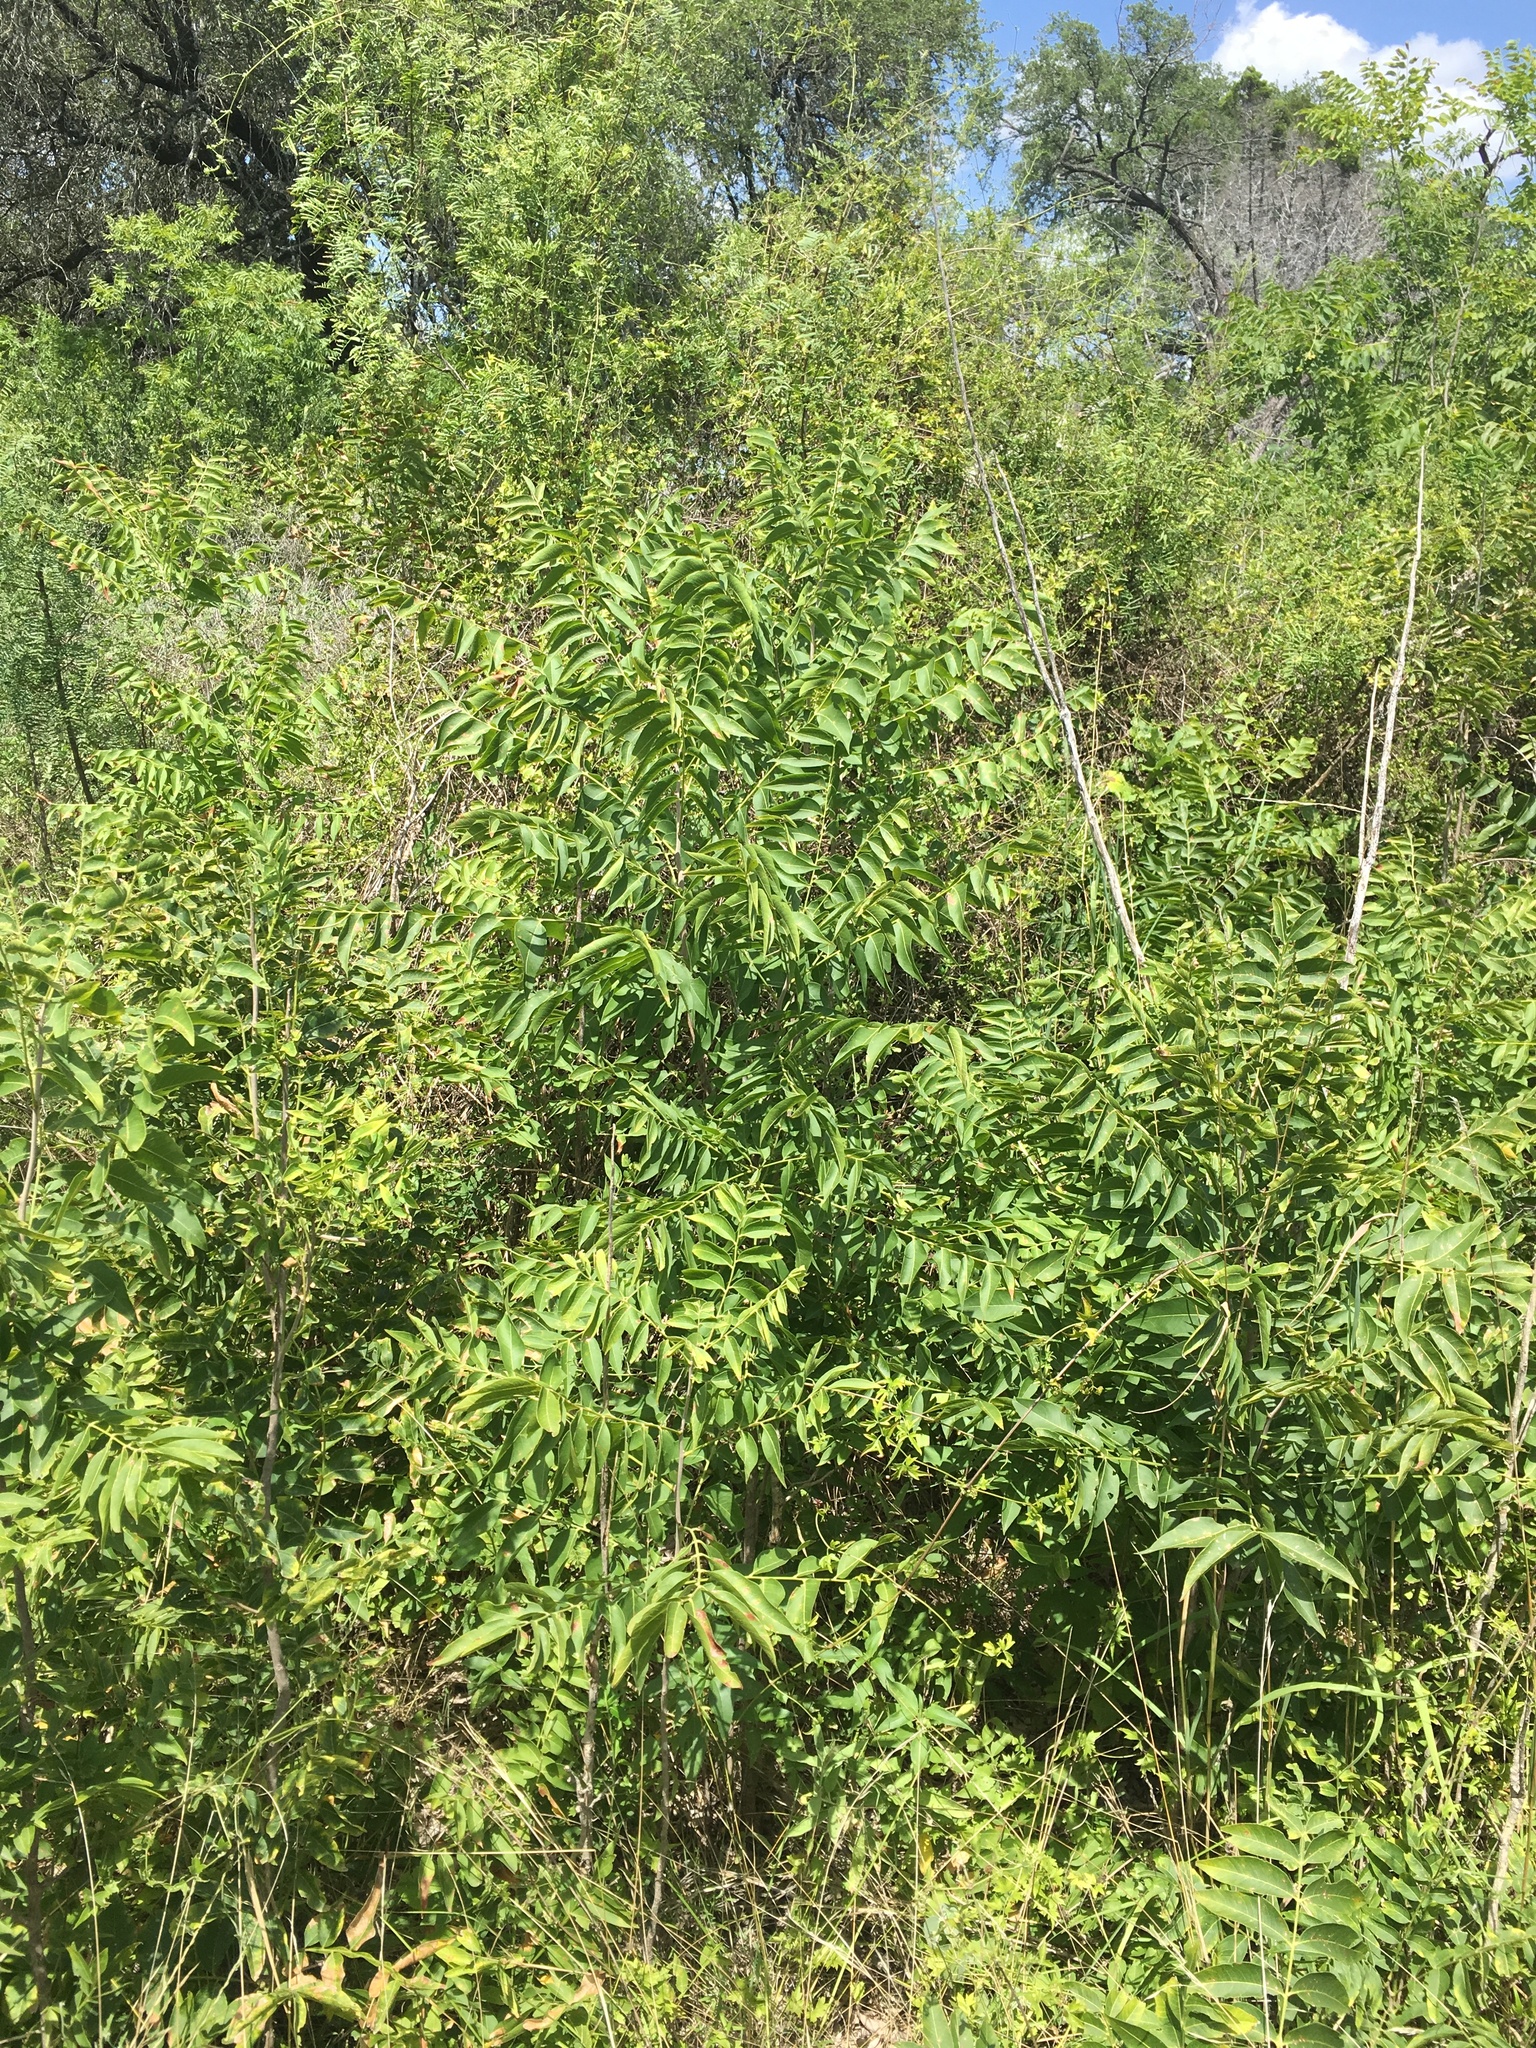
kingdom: Plantae
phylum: Tracheophyta
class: Magnoliopsida
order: Sapindales
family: Sapindaceae
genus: Sapindus
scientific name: Sapindus drummondii
